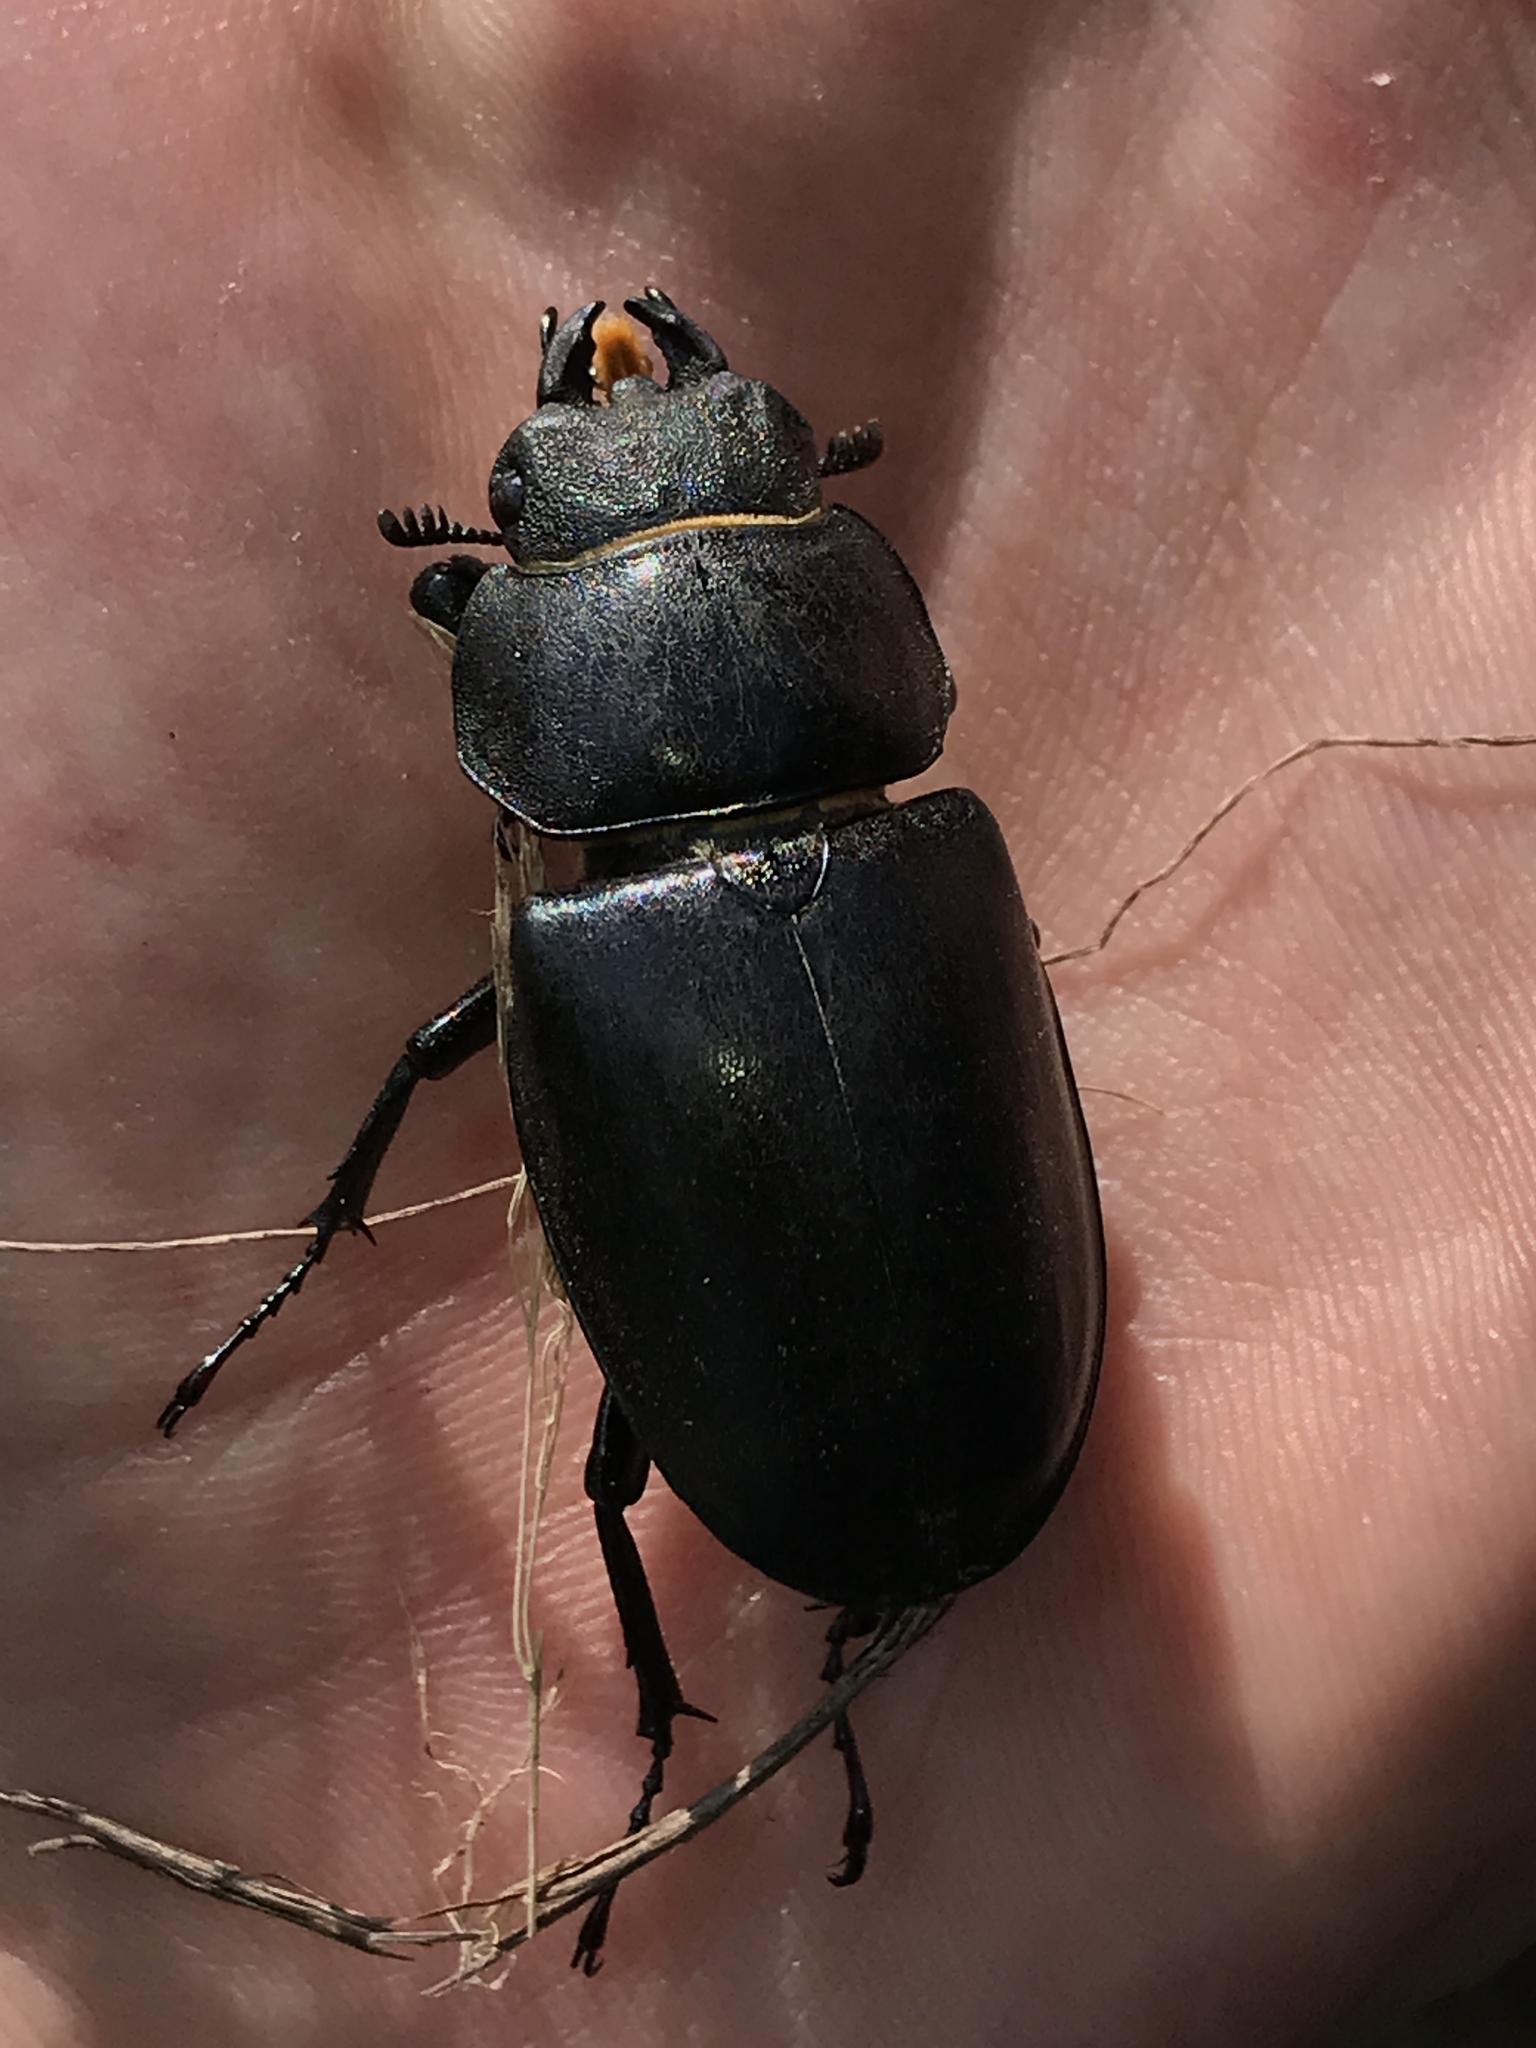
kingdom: Animalia
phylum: Arthropoda
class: Insecta
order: Coleoptera
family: Lucanidae
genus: Lucanus
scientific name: Lucanus cervus
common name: Stag beetle
